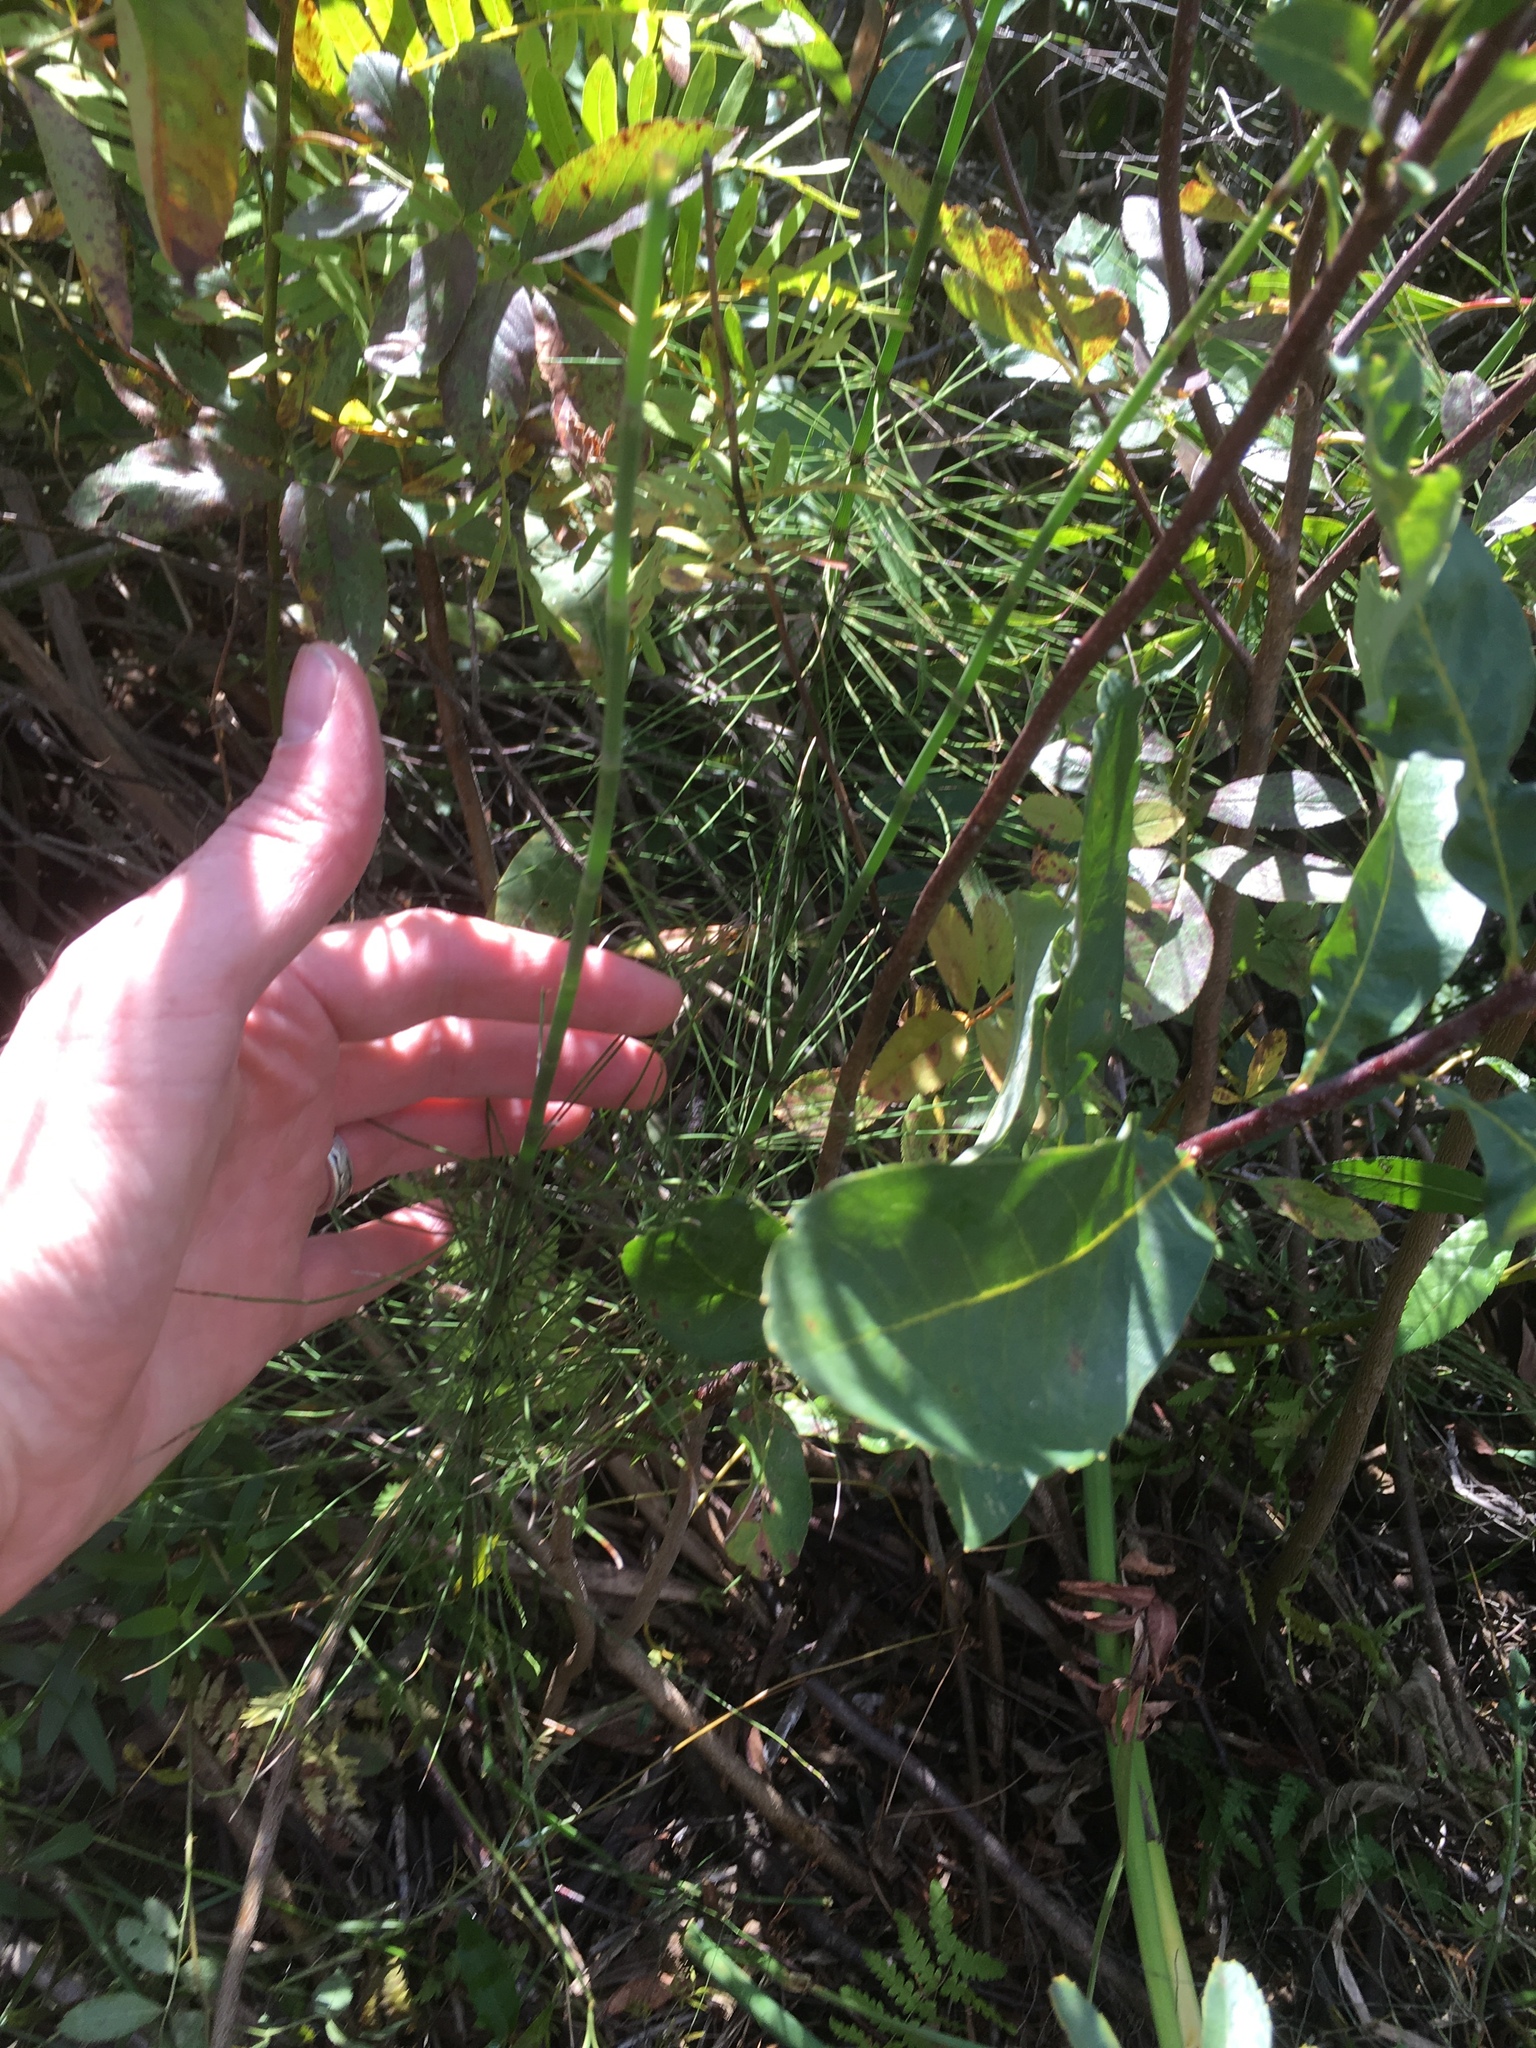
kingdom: Plantae
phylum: Tracheophyta
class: Polypodiopsida
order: Equisetales
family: Equisetaceae
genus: Equisetum
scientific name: Equisetum fluviatile
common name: Water horsetail
